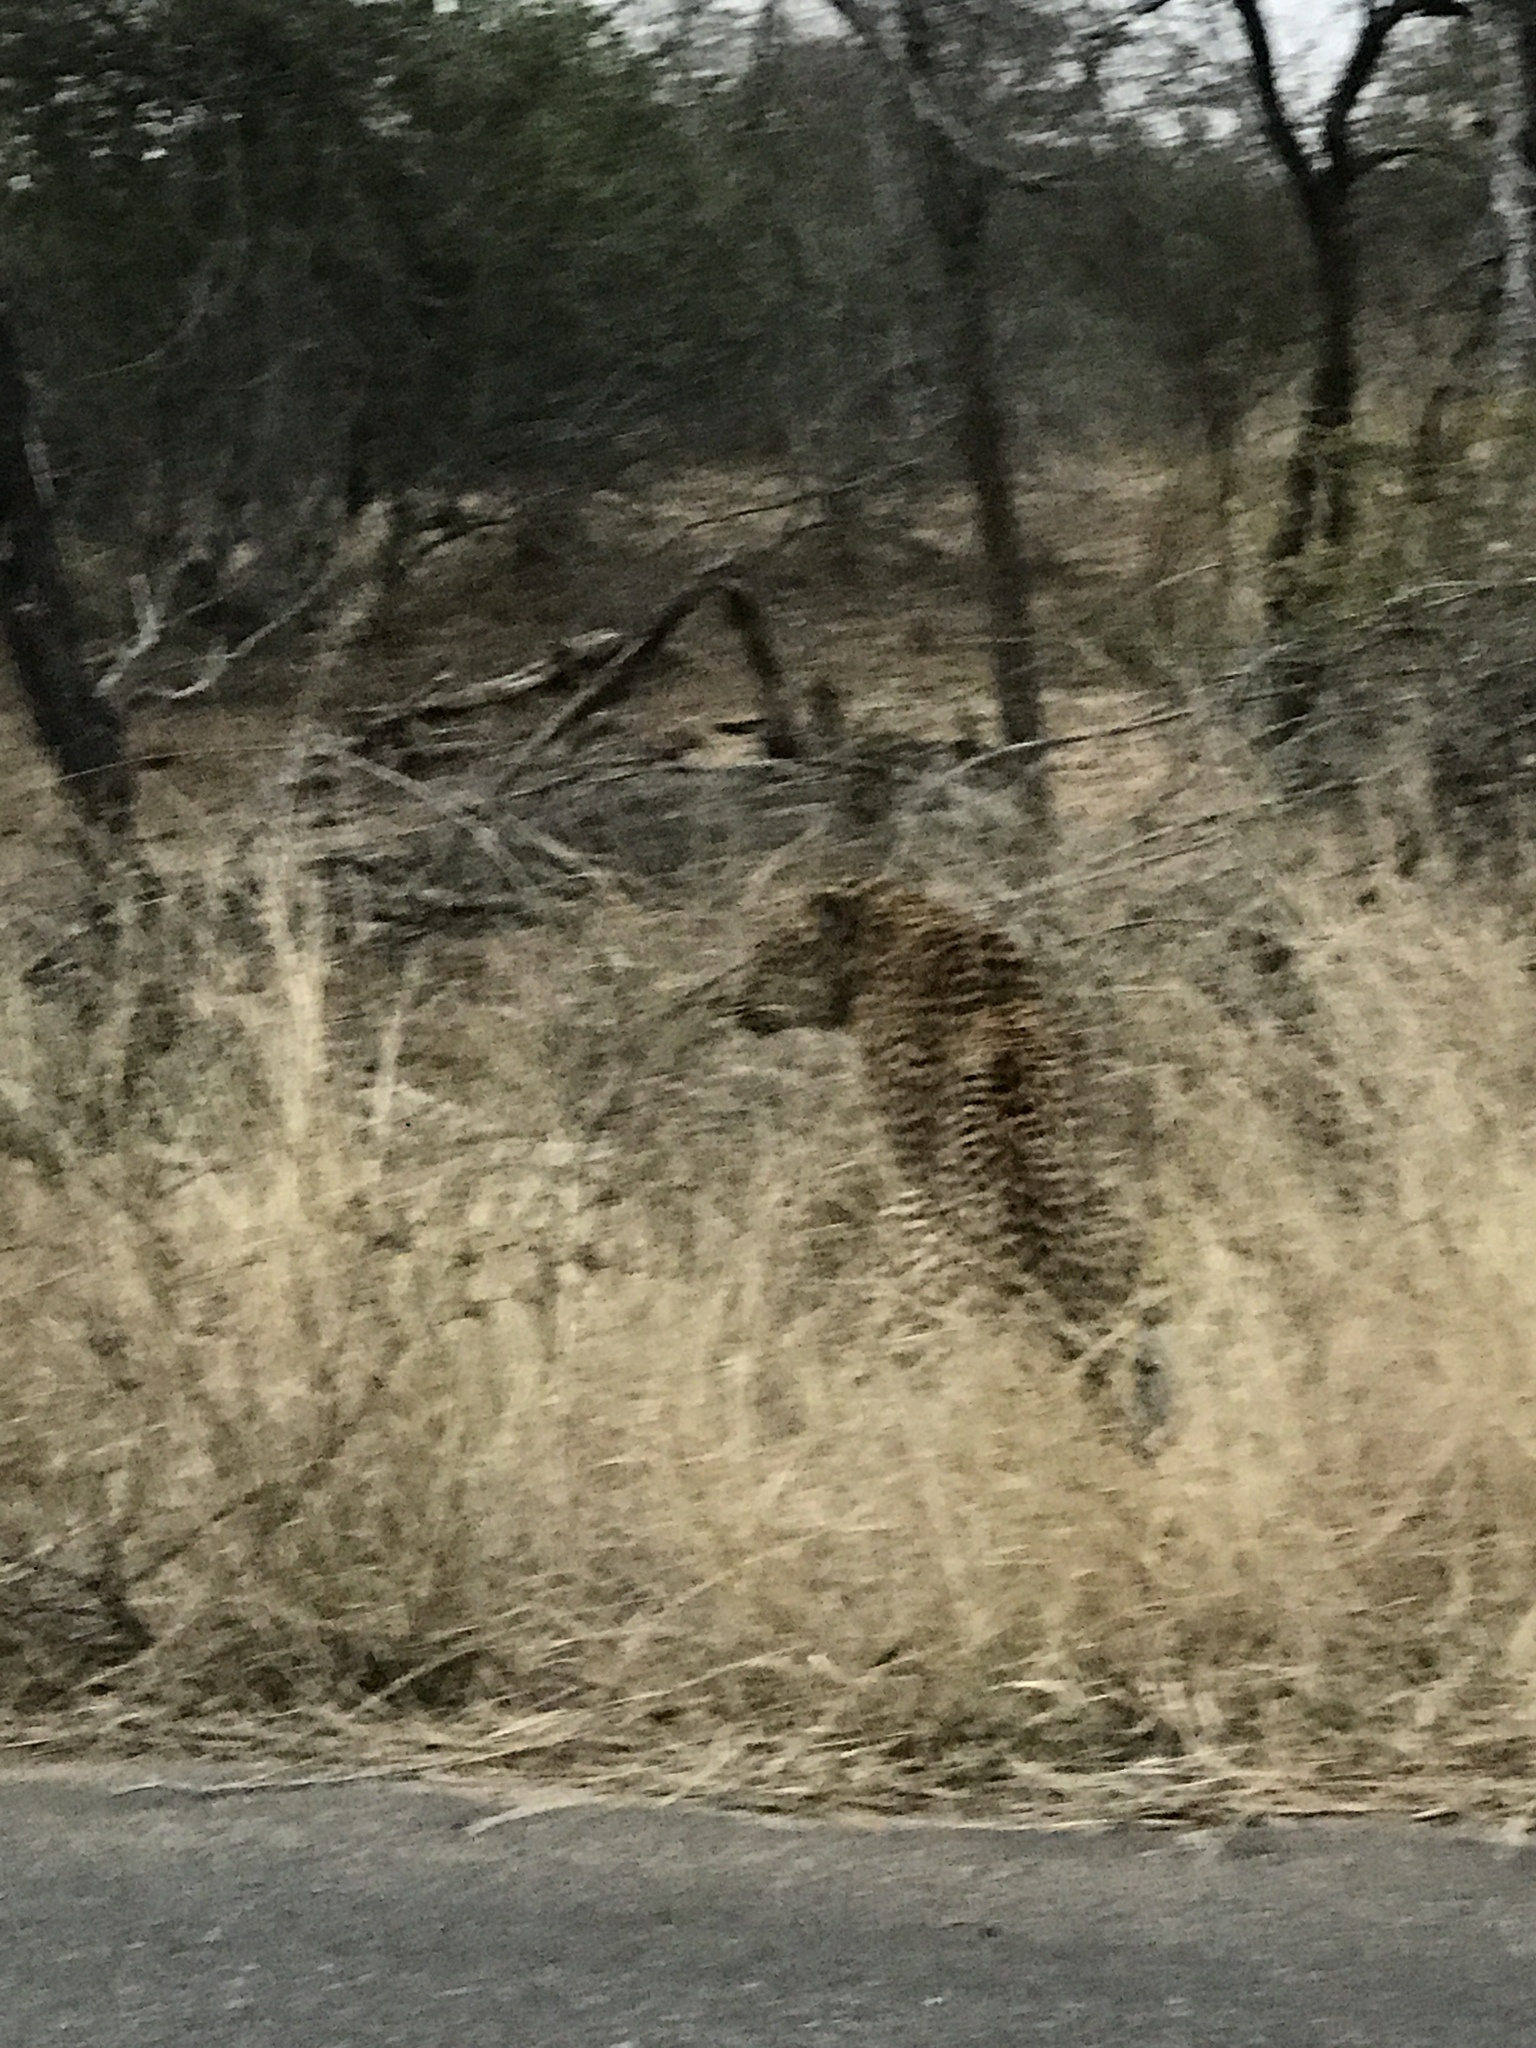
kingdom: Animalia
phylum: Chordata
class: Mammalia
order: Carnivora
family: Felidae
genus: Panthera
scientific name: Panthera pardus
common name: Leopard
